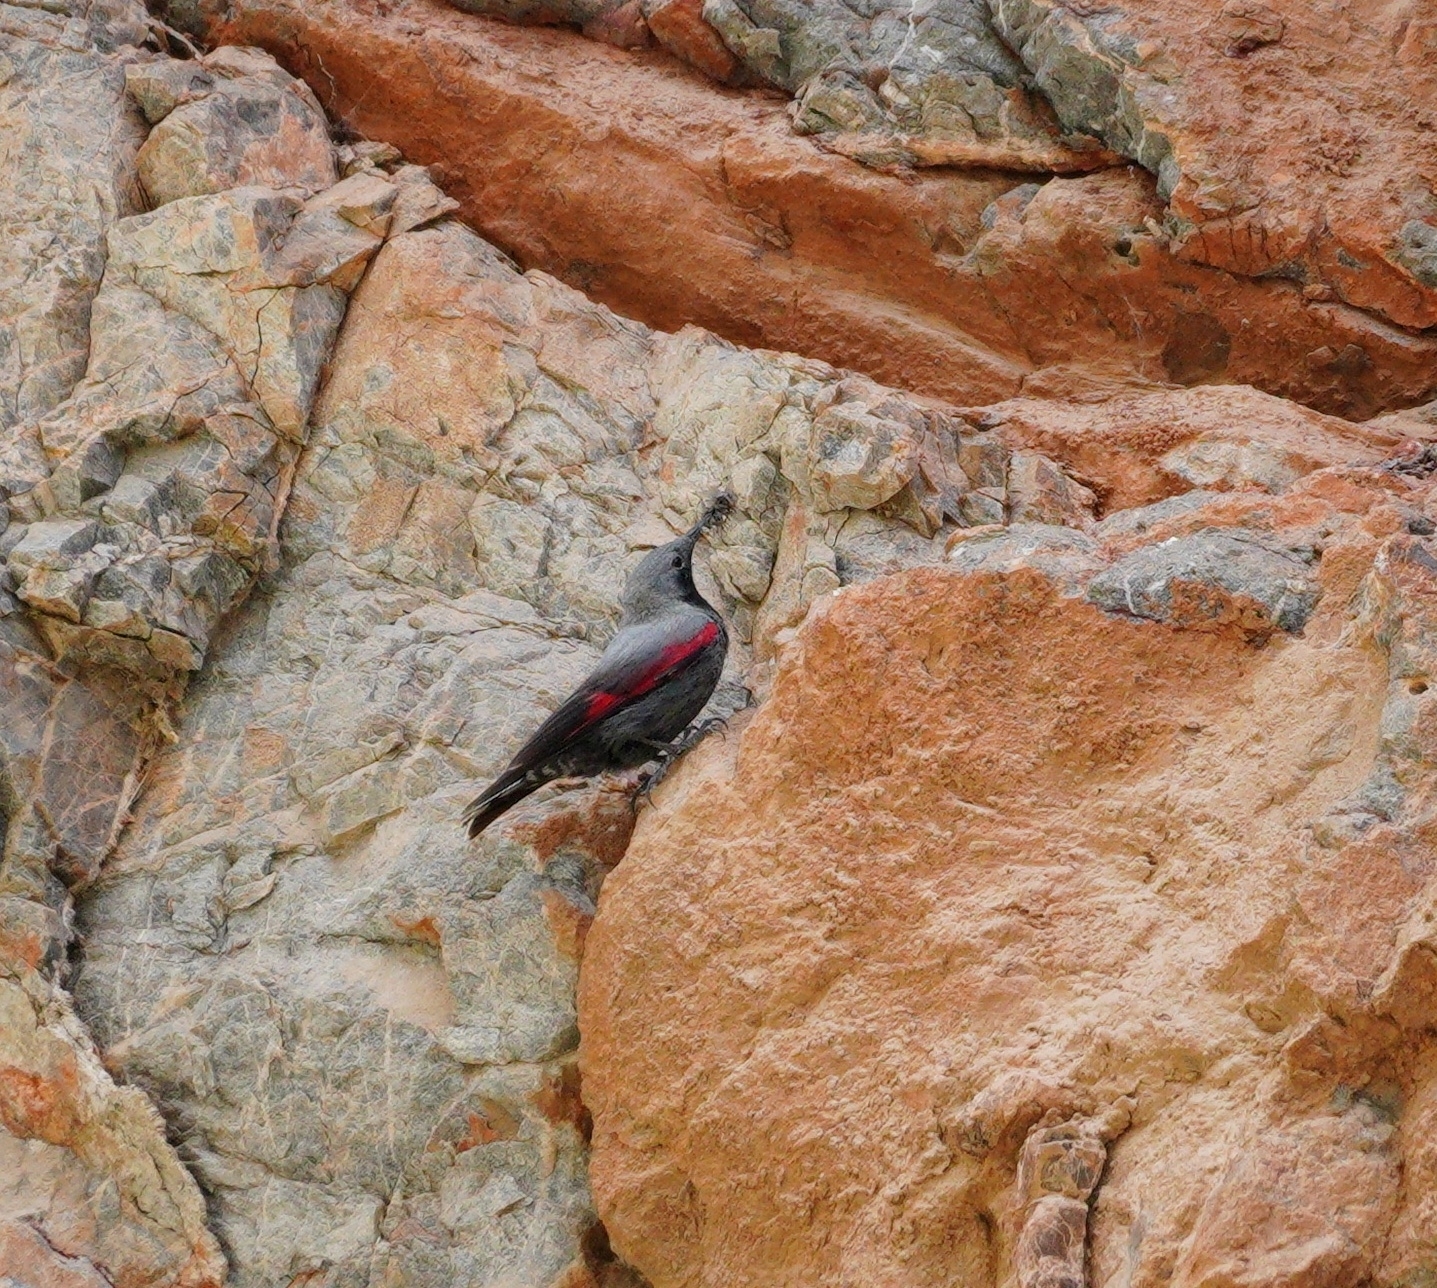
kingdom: Animalia
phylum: Chordata
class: Aves
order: Passeriformes
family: Tichodromidae
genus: Tichodroma
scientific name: Tichodroma muraria
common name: Wallcreeper
